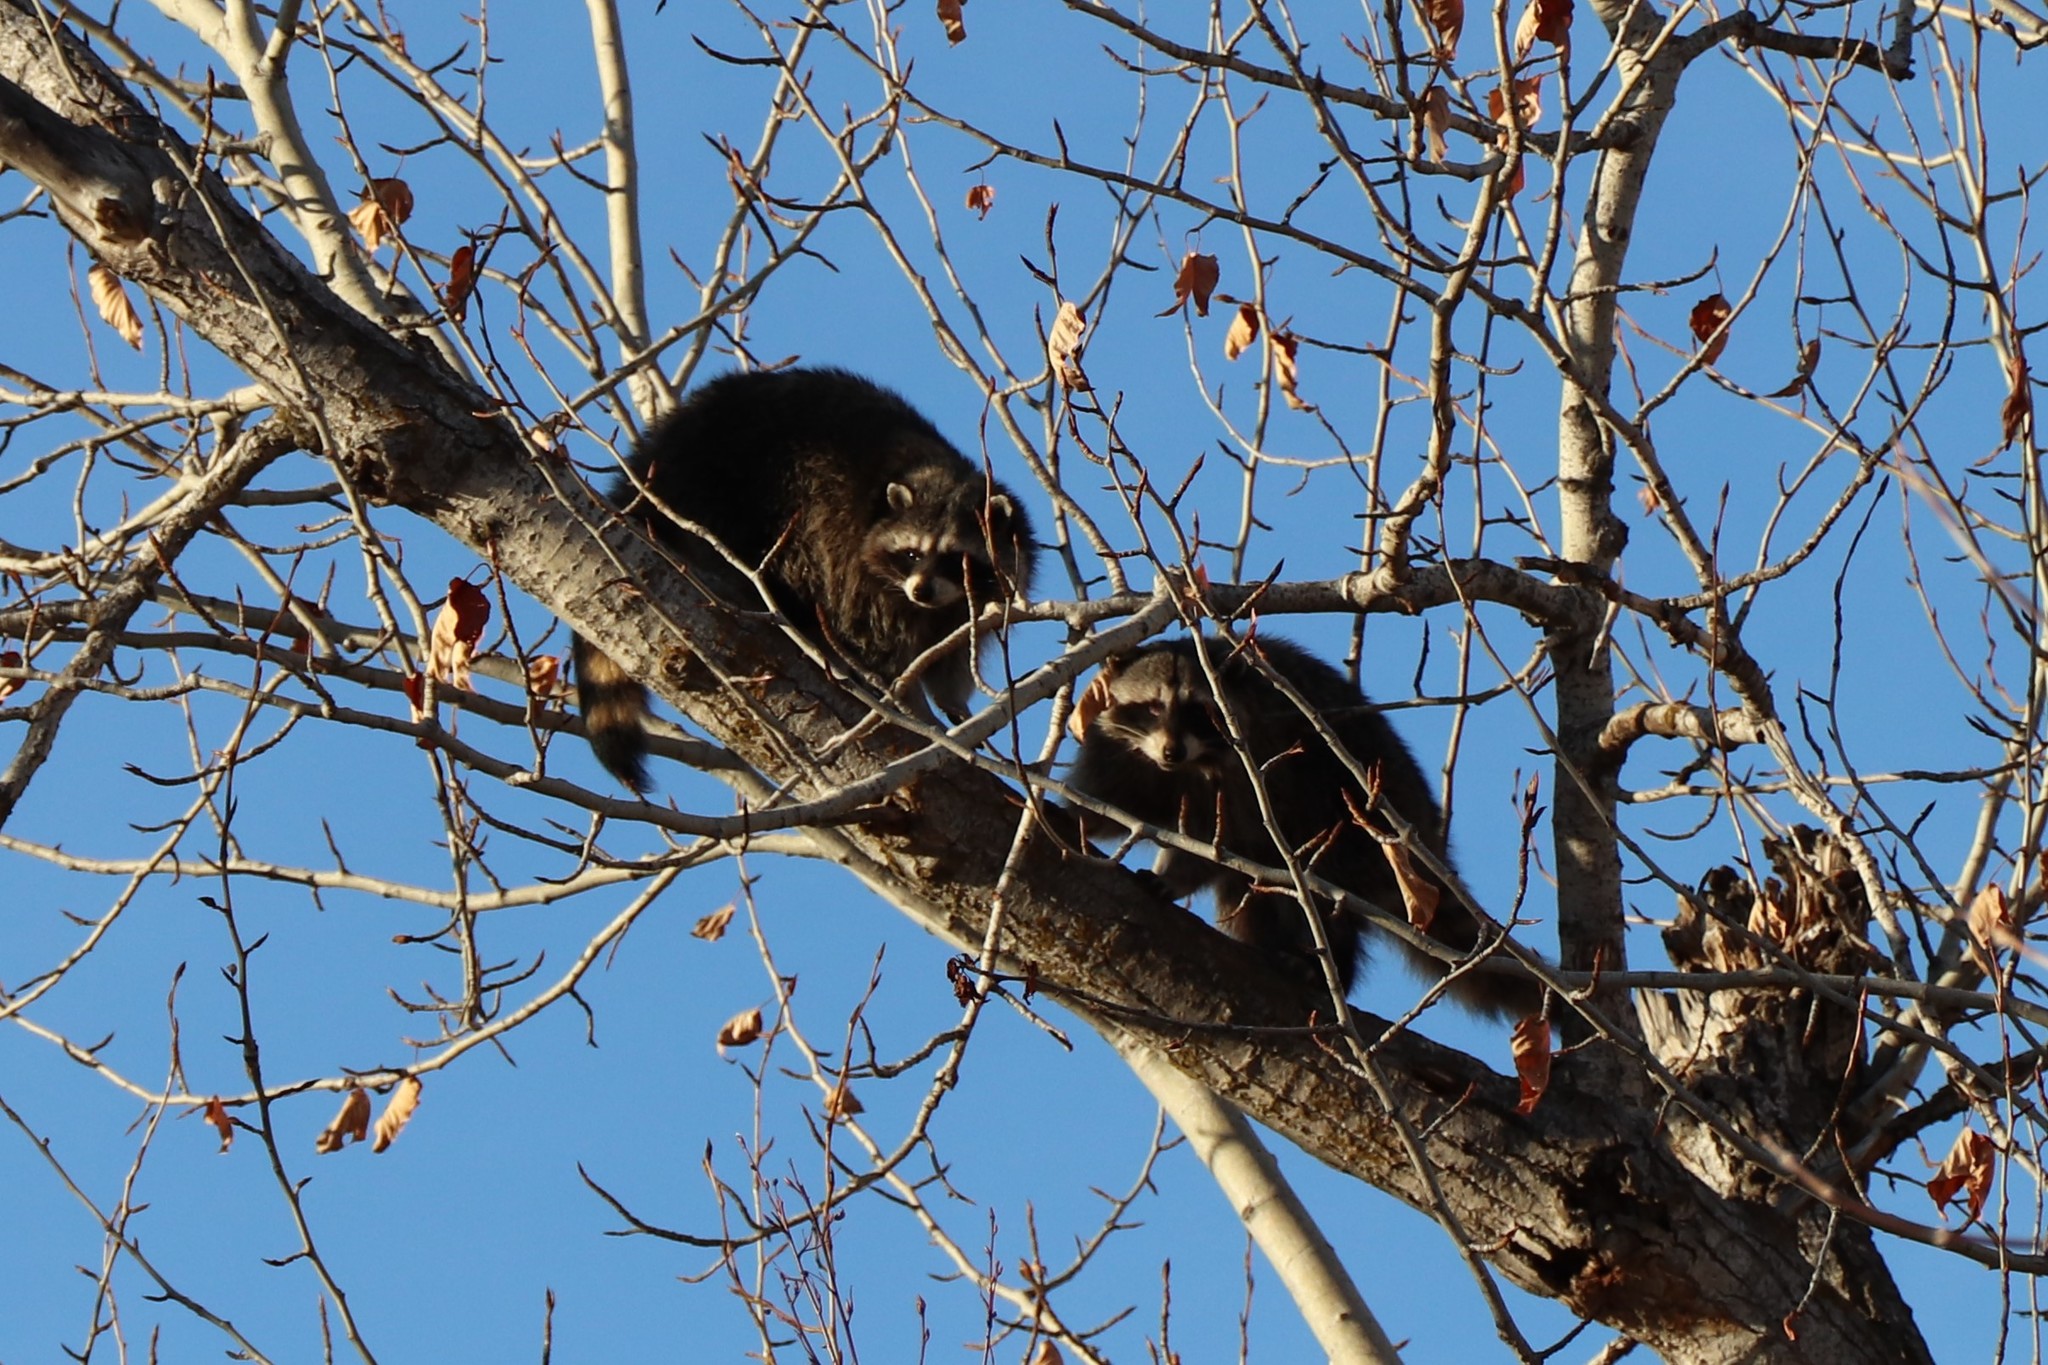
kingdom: Animalia
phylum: Chordata
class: Mammalia
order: Carnivora
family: Procyonidae
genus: Procyon
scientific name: Procyon lotor
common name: Raccoon
